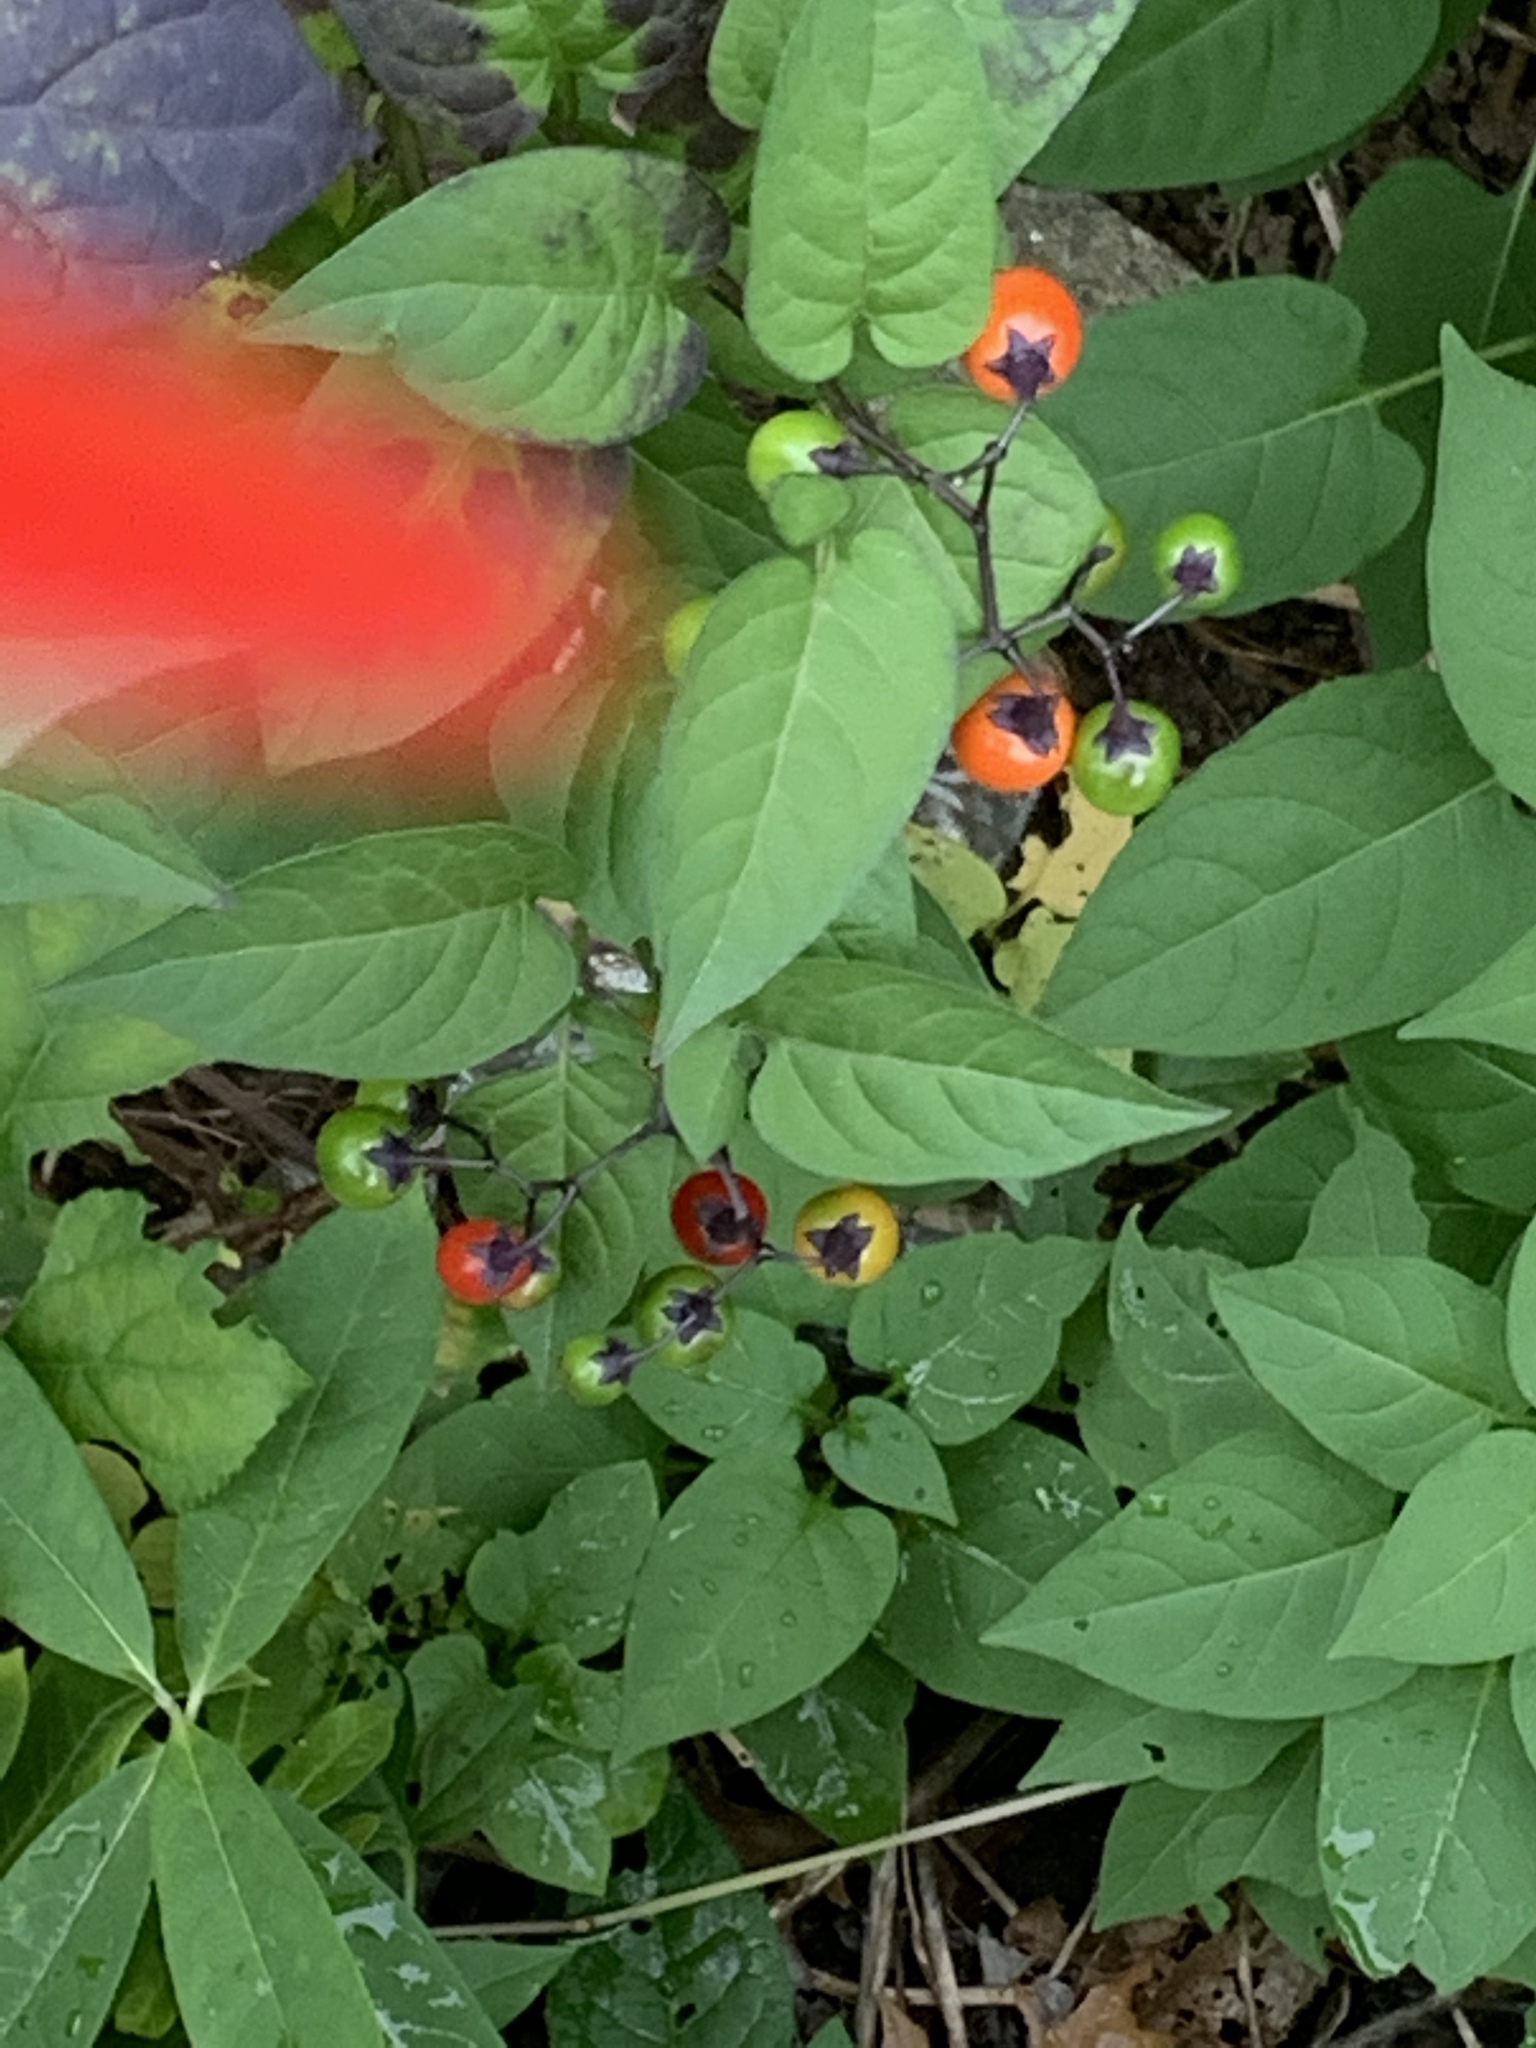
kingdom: Plantae
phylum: Tracheophyta
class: Magnoliopsida
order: Solanales
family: Solanaceae
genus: Solanum
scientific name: Solanum dulcamara
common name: Climbing nightshade
